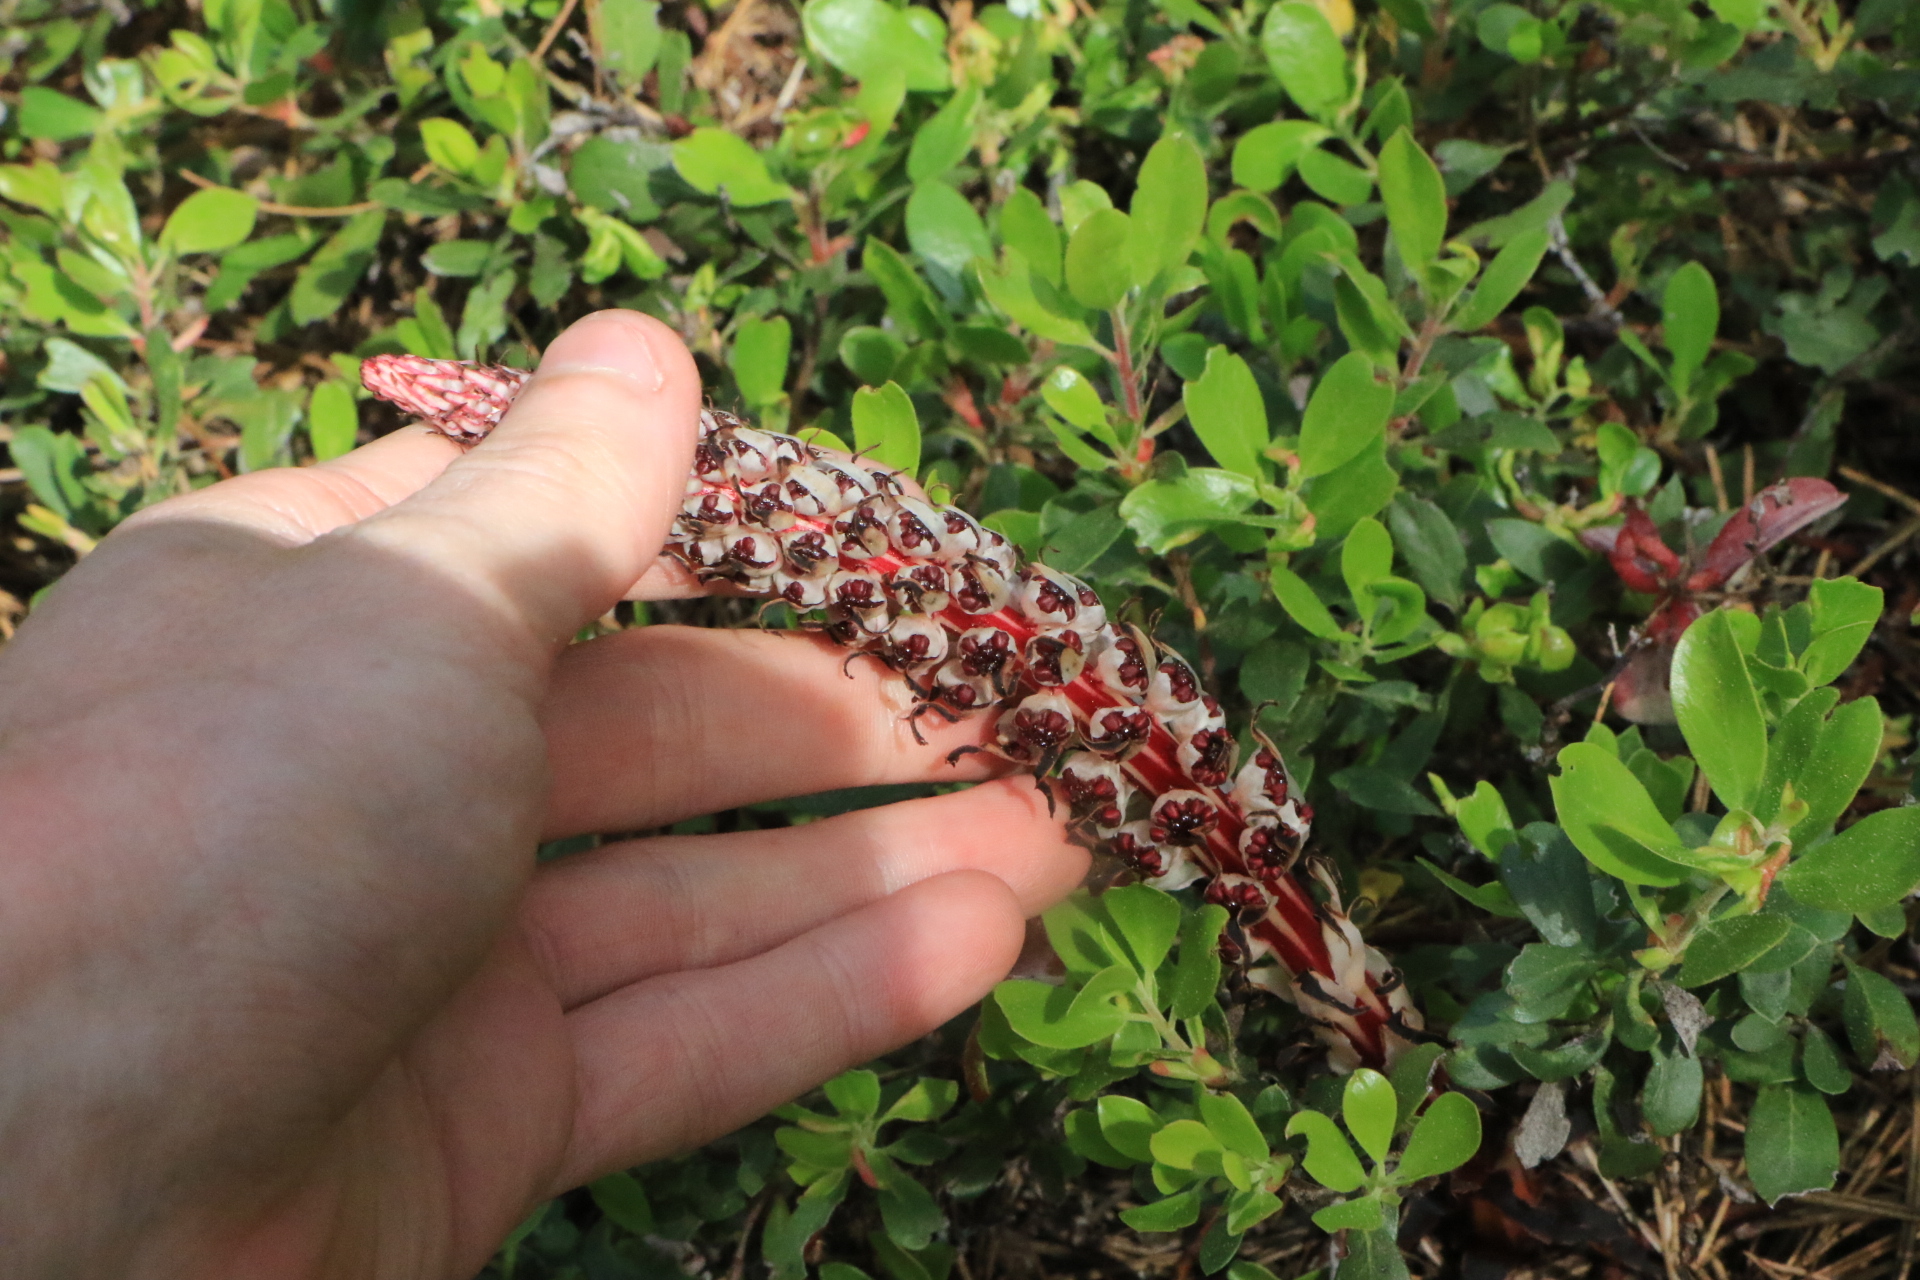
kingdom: Plantae
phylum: Tracheophyta
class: Magnoliopsida
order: Ericales
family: Ericaceae
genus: Allotropa
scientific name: Allotropa virgata
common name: Candy-striped allotropa
